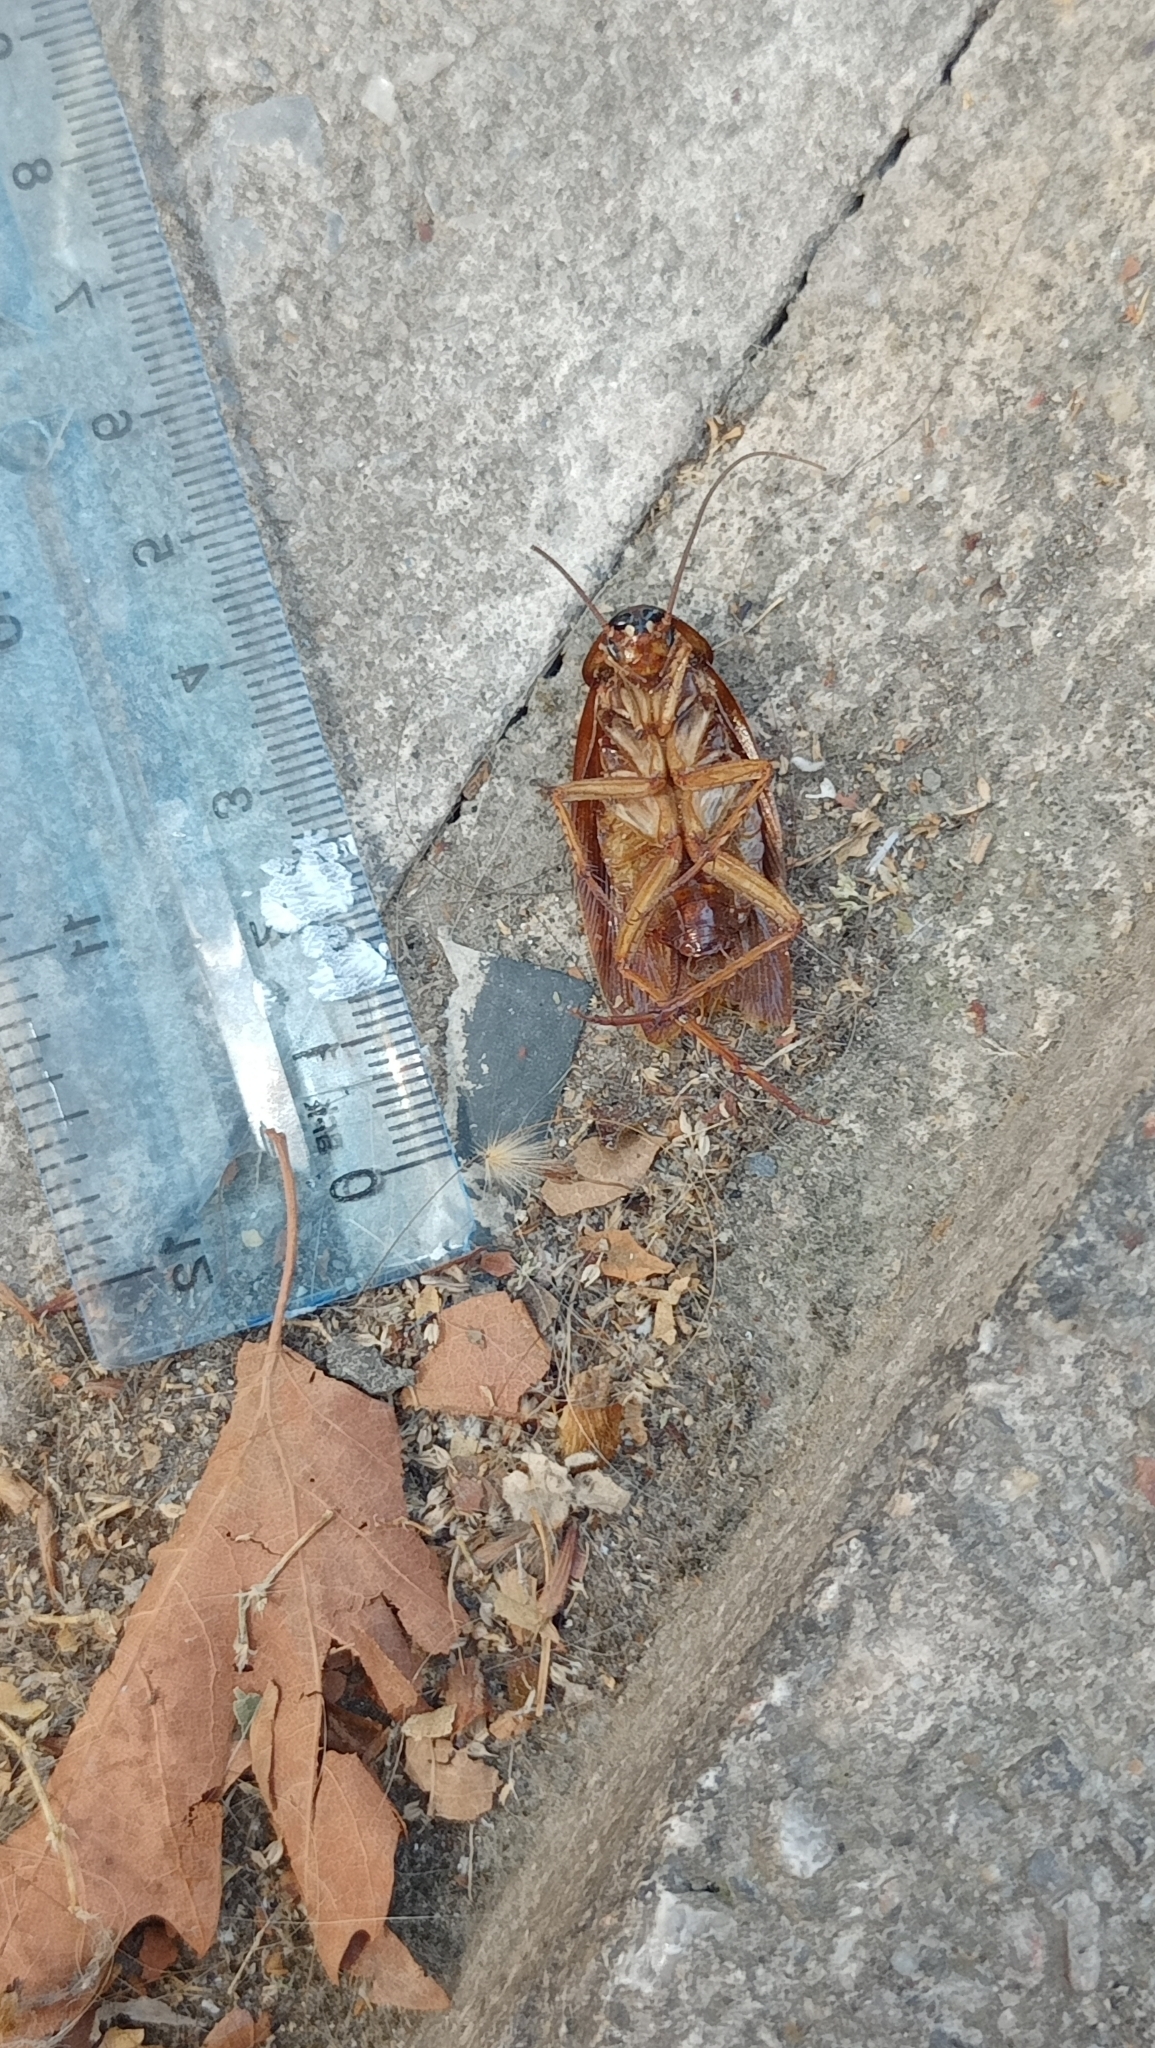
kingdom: Animalia
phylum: Arthropoda
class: Insecta
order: Blattodea
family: Blattidae
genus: Periplaneta
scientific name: Periplaneta americana
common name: American cockroach
